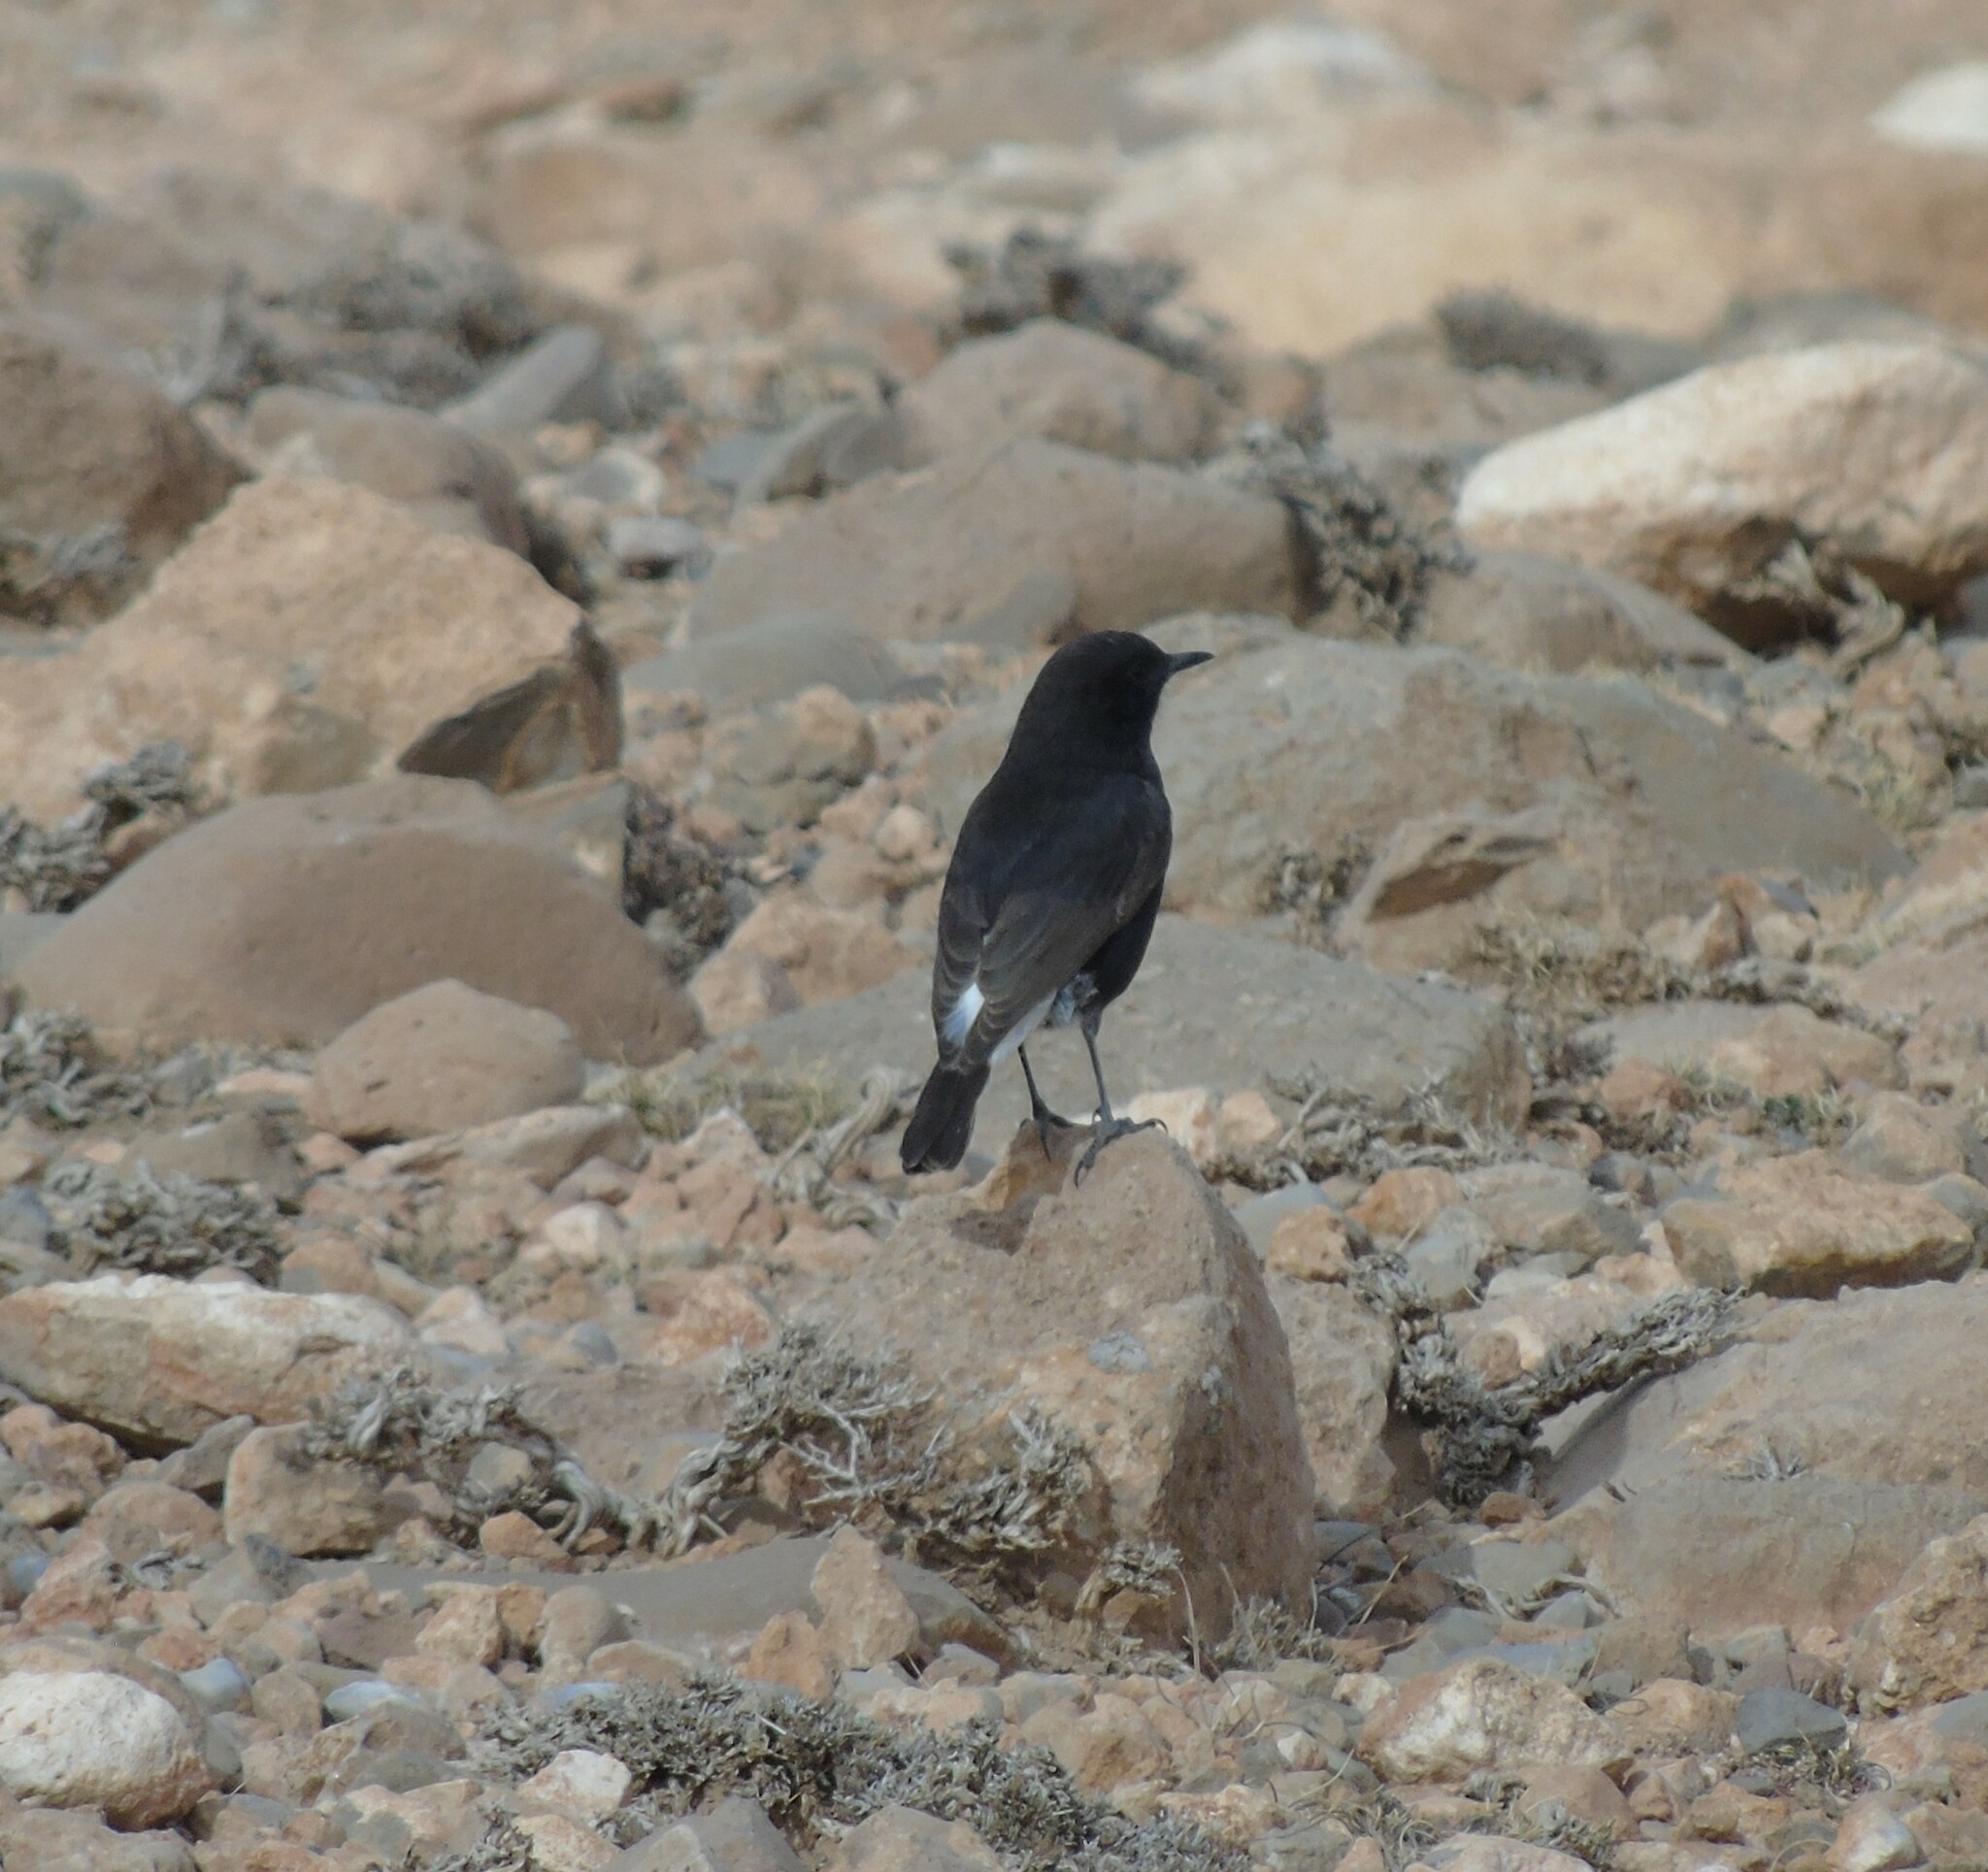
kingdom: Animalia
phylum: Chordata
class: Aves
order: Passeriformes
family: Muscicapidae
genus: Oenanthe
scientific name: Oenanthe leucura
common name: Black wheatear
